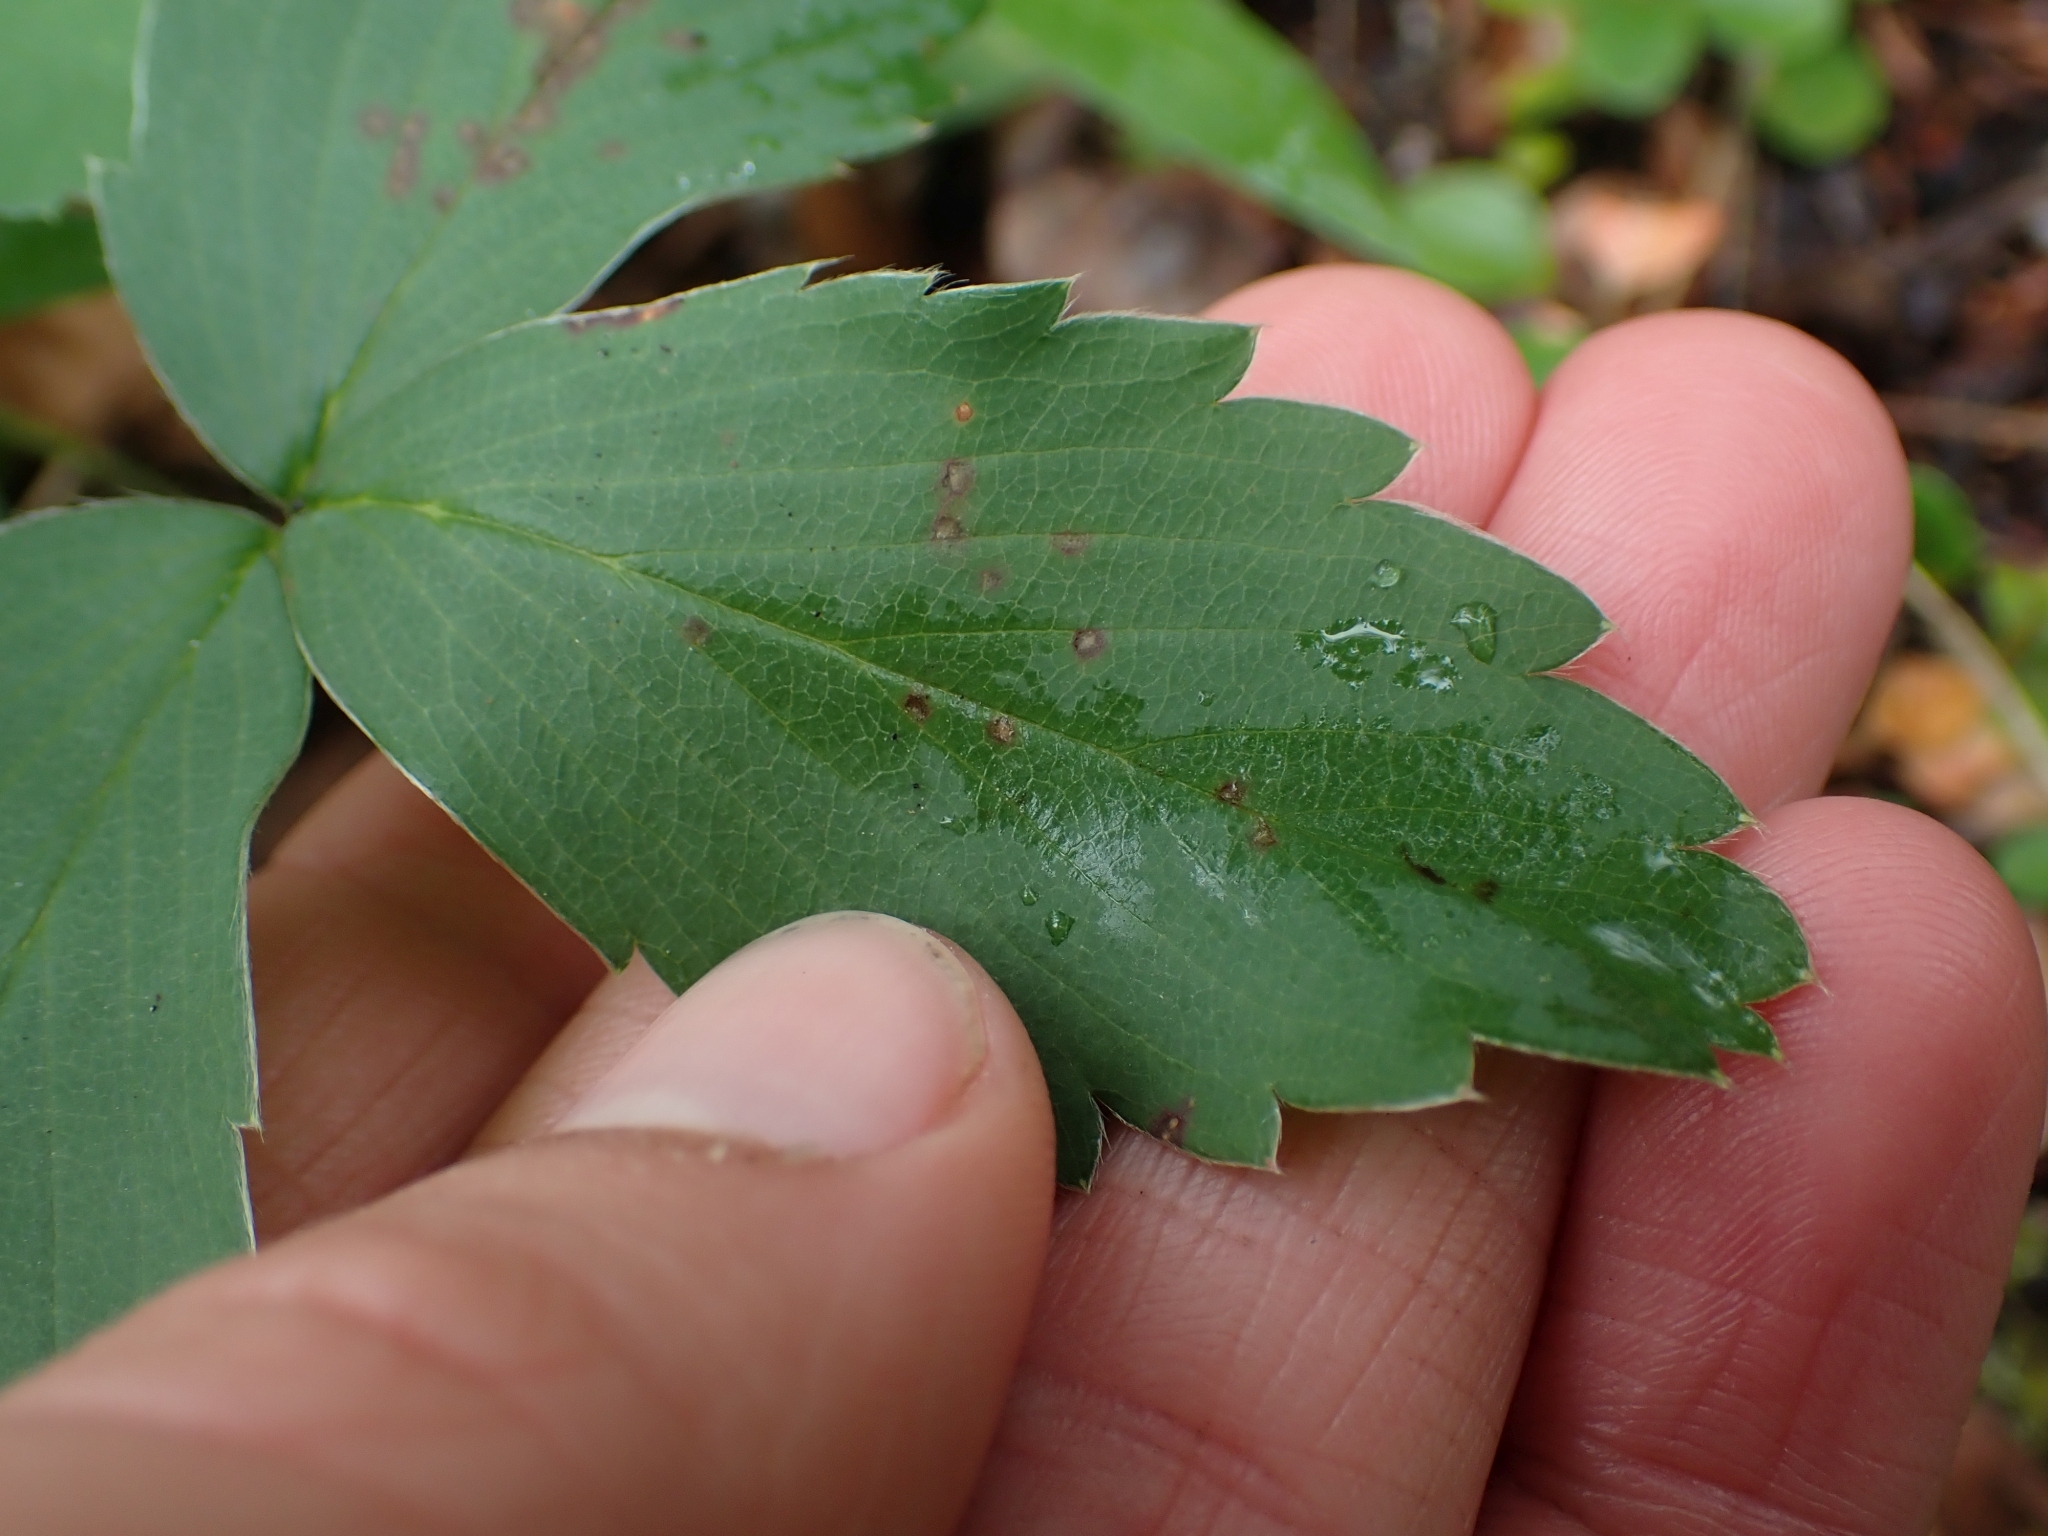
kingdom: Plantae
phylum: Tracheophyta
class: Magnoliopsida
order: Rosales
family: Rosaceae
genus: Fragaria
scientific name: Fragaria virginiana
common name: Thickleaved wild strawberry
